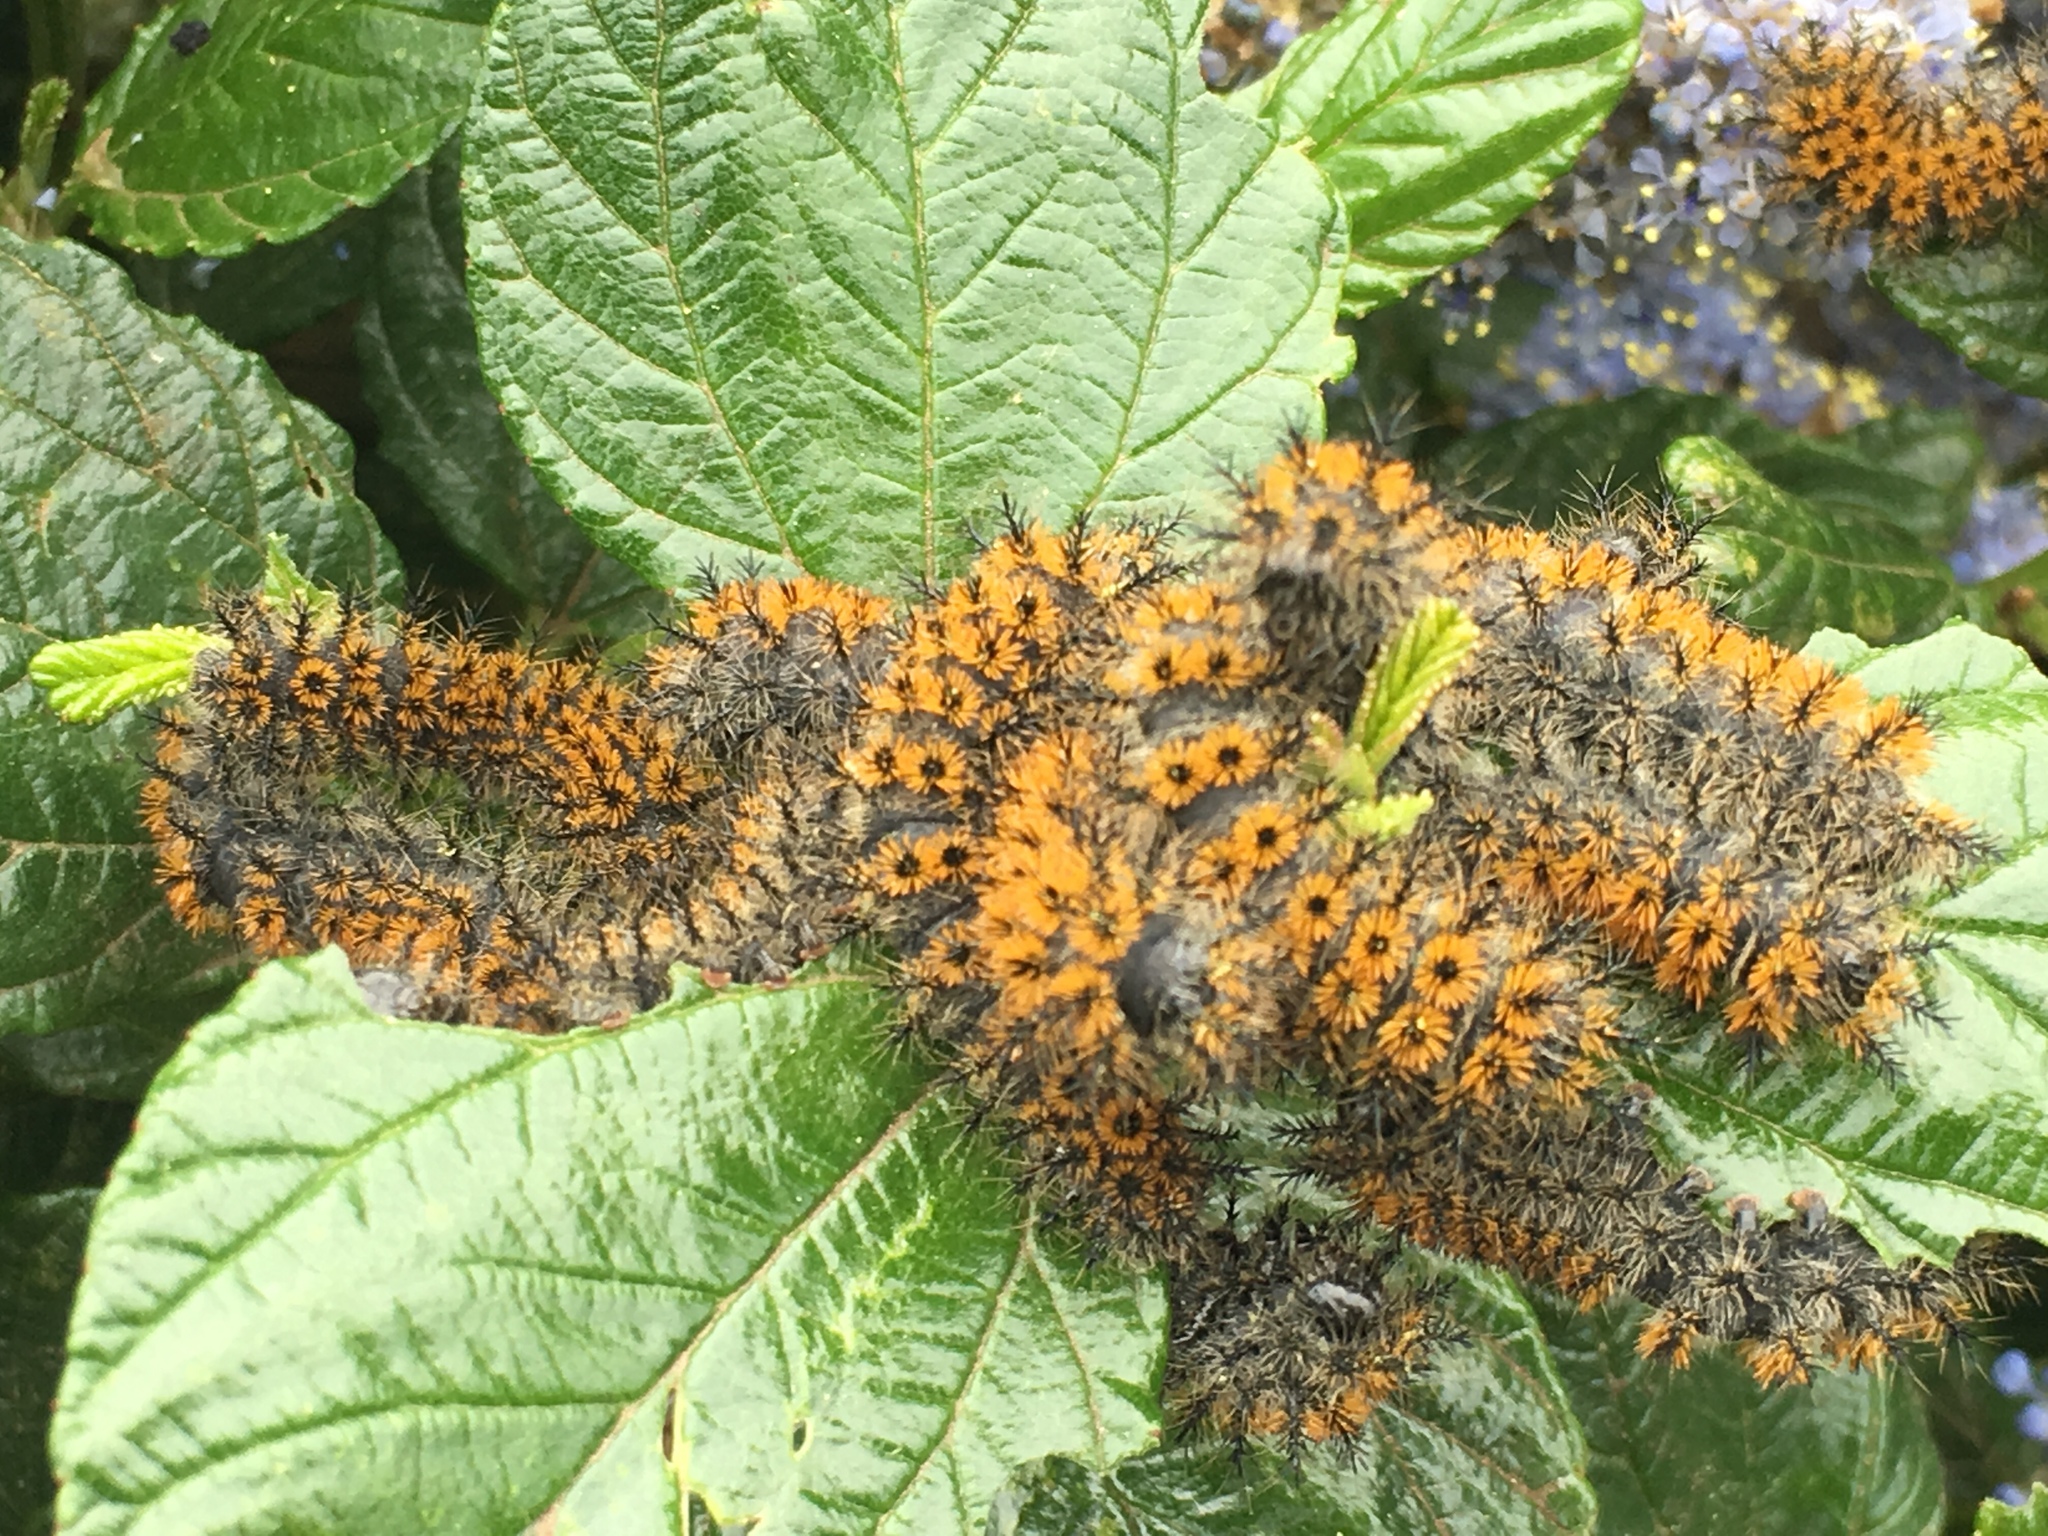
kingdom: Animalia
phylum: Arthropoda
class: Insecta
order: Lepidoptera
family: Saturniidae
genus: Hemileuca
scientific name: Hemileuca eglanterina
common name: Western sheepmoth
